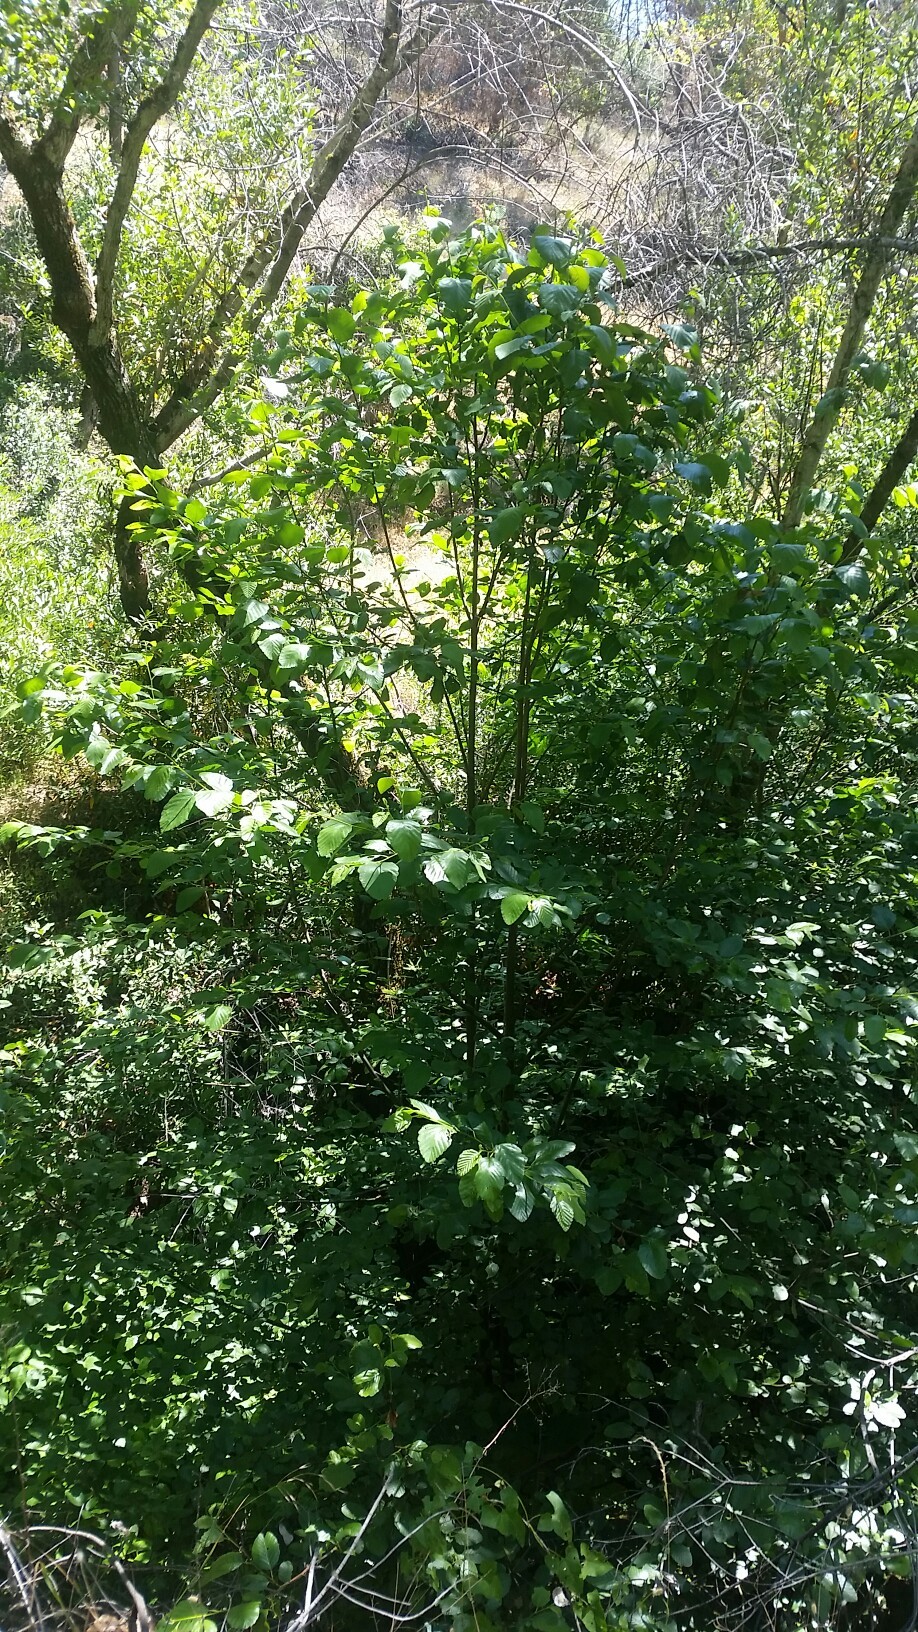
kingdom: Plantae
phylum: Tracheophyta
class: Magnoliopsida
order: Fagales
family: Betulaceae
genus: Alnus
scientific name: Alnus rhombifolia
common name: California alder
